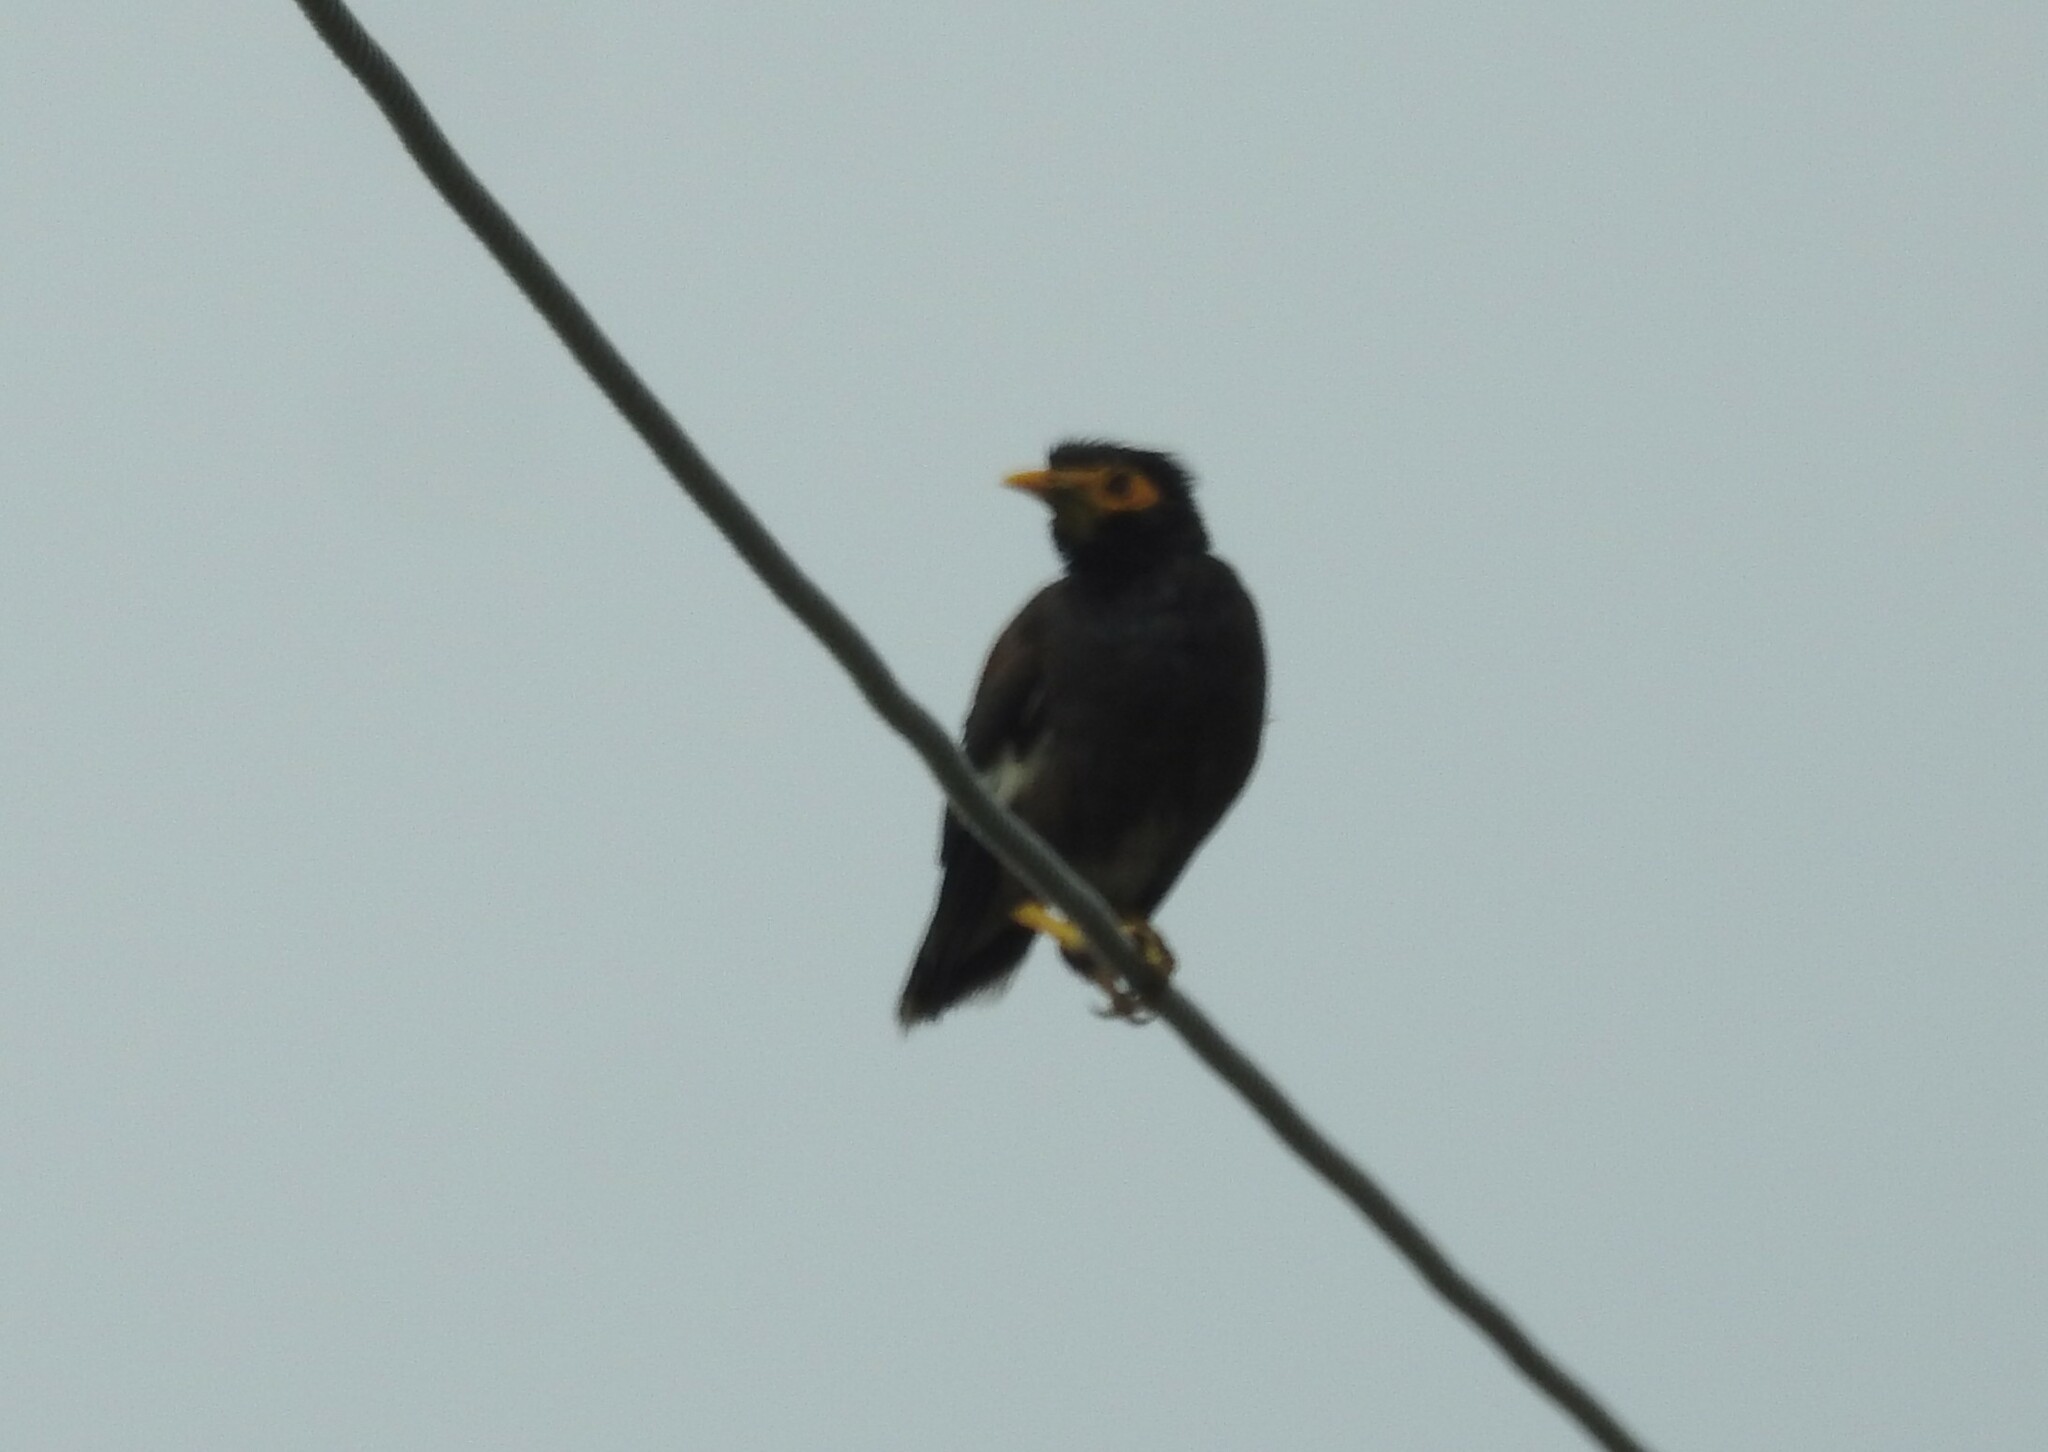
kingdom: Animalia
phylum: Chordata
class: Aves
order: Passeriformes
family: Sturnidae
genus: Acridotheres
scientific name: Acridotheres tristis
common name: Common myna
